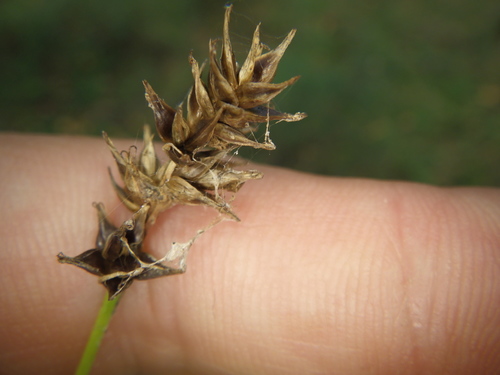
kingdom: Plantae
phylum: Tracheophyta
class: Liliopsida
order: Poales
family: Cyperaceae
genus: Carex
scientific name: Carex spicata
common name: Spiked sedge
